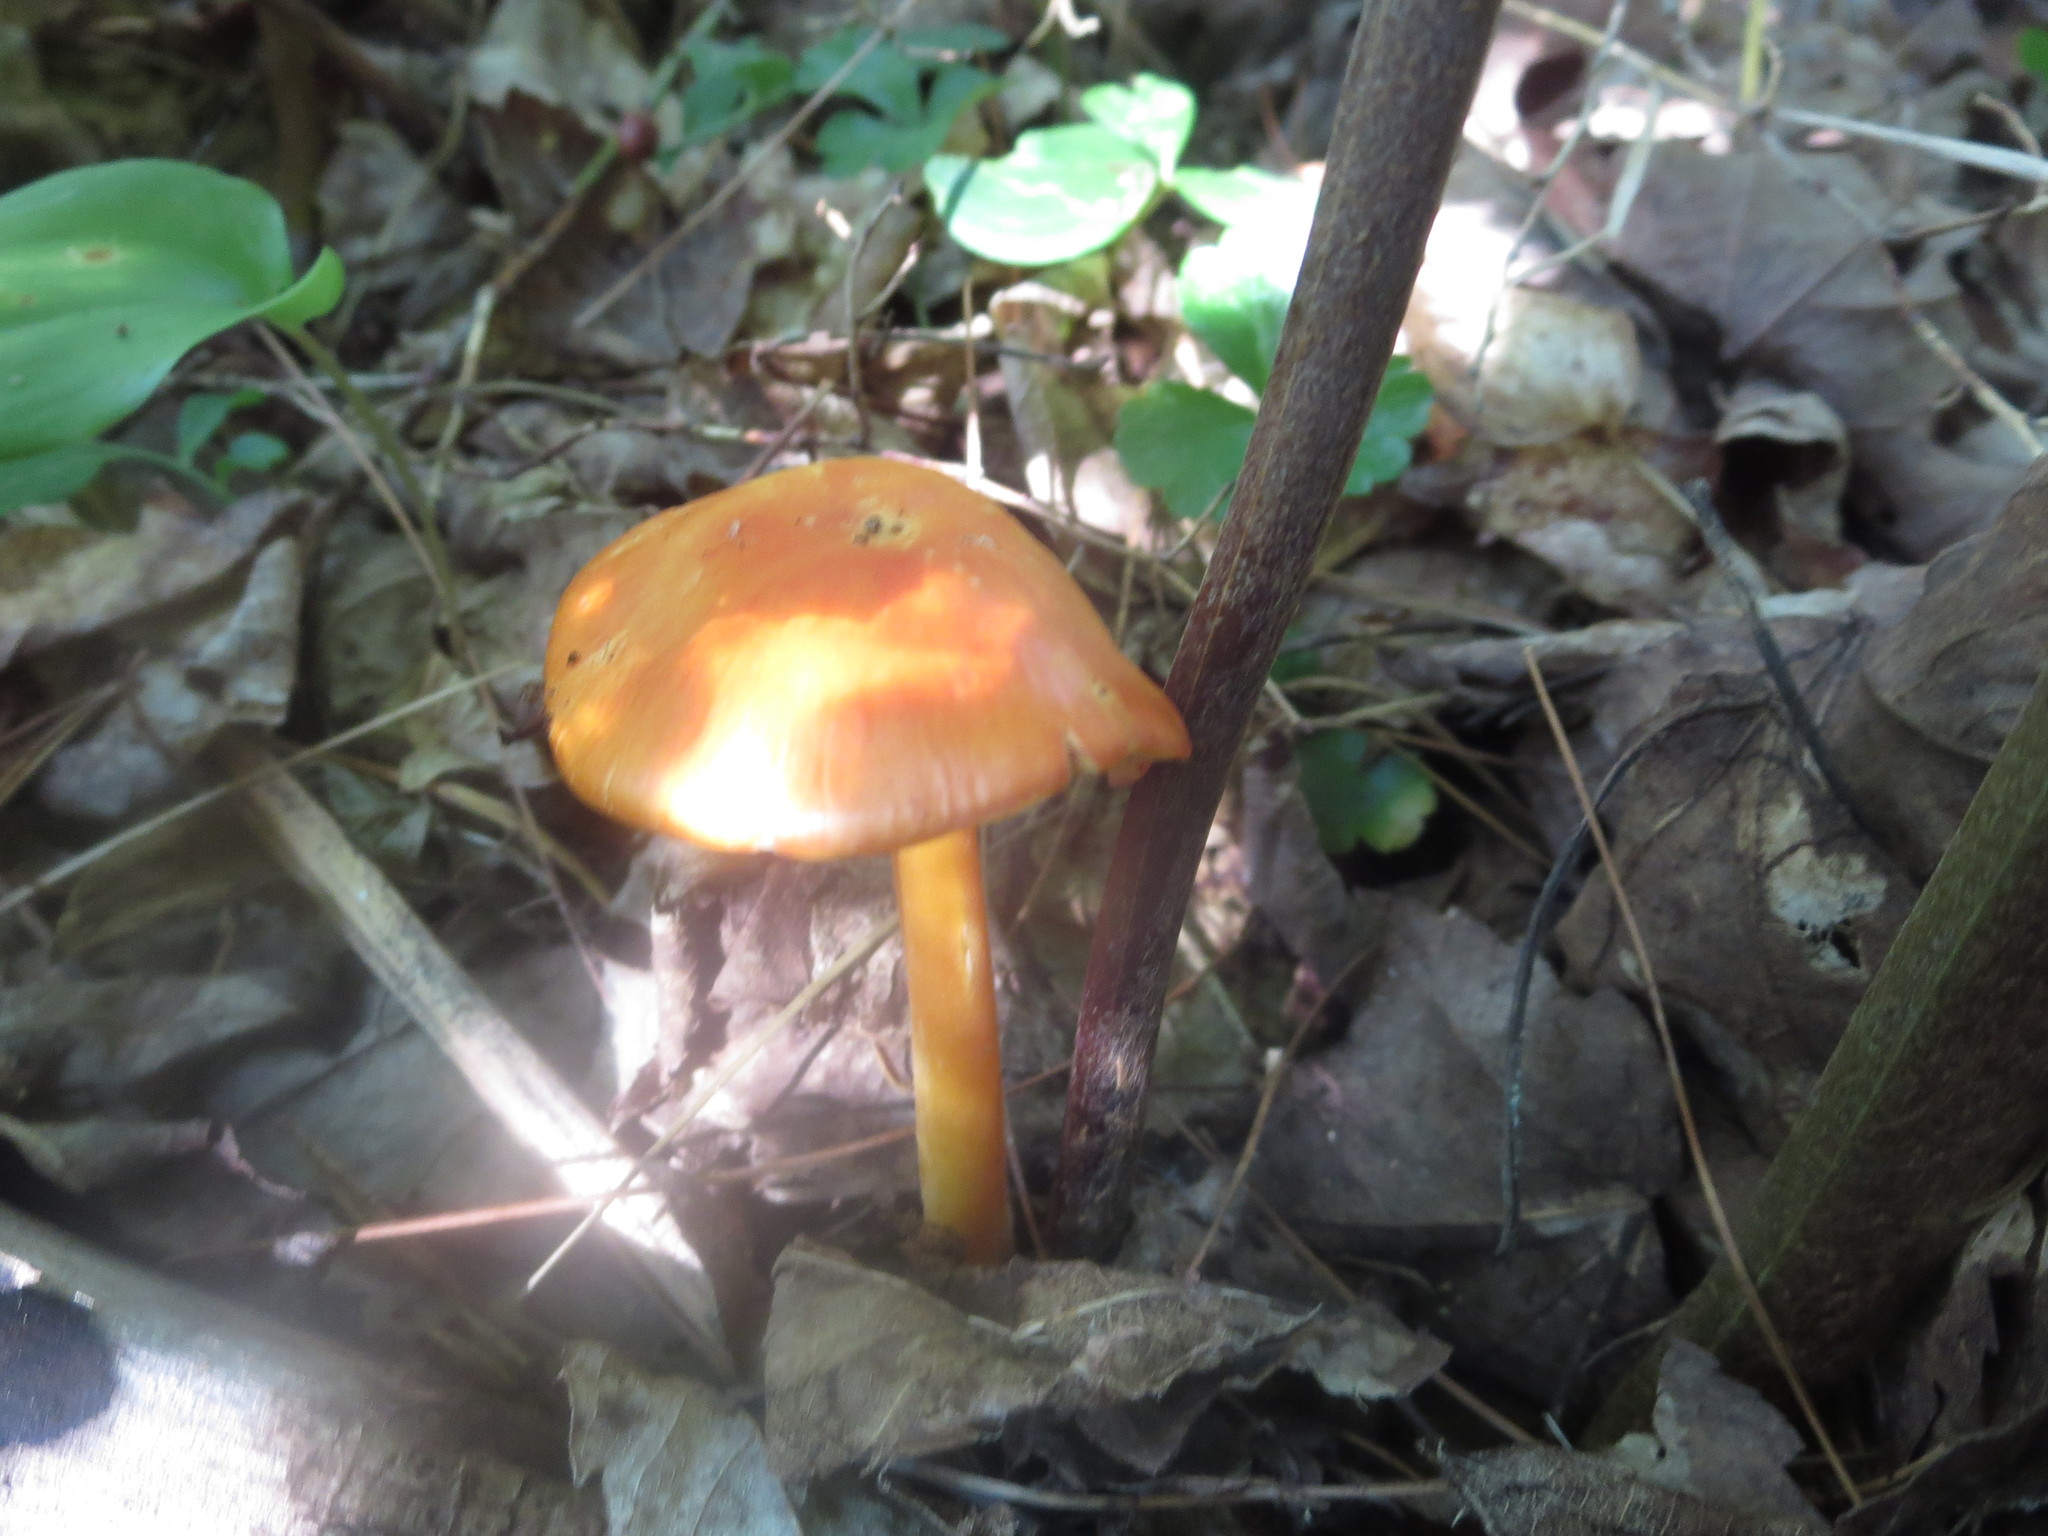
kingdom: Fungi
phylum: Basidiomycota
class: Agaricomycetes
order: Agaricales
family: Hygrophoraceae
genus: Hygrocybe
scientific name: Hygrocybe punicea
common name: Crimson waxcap
